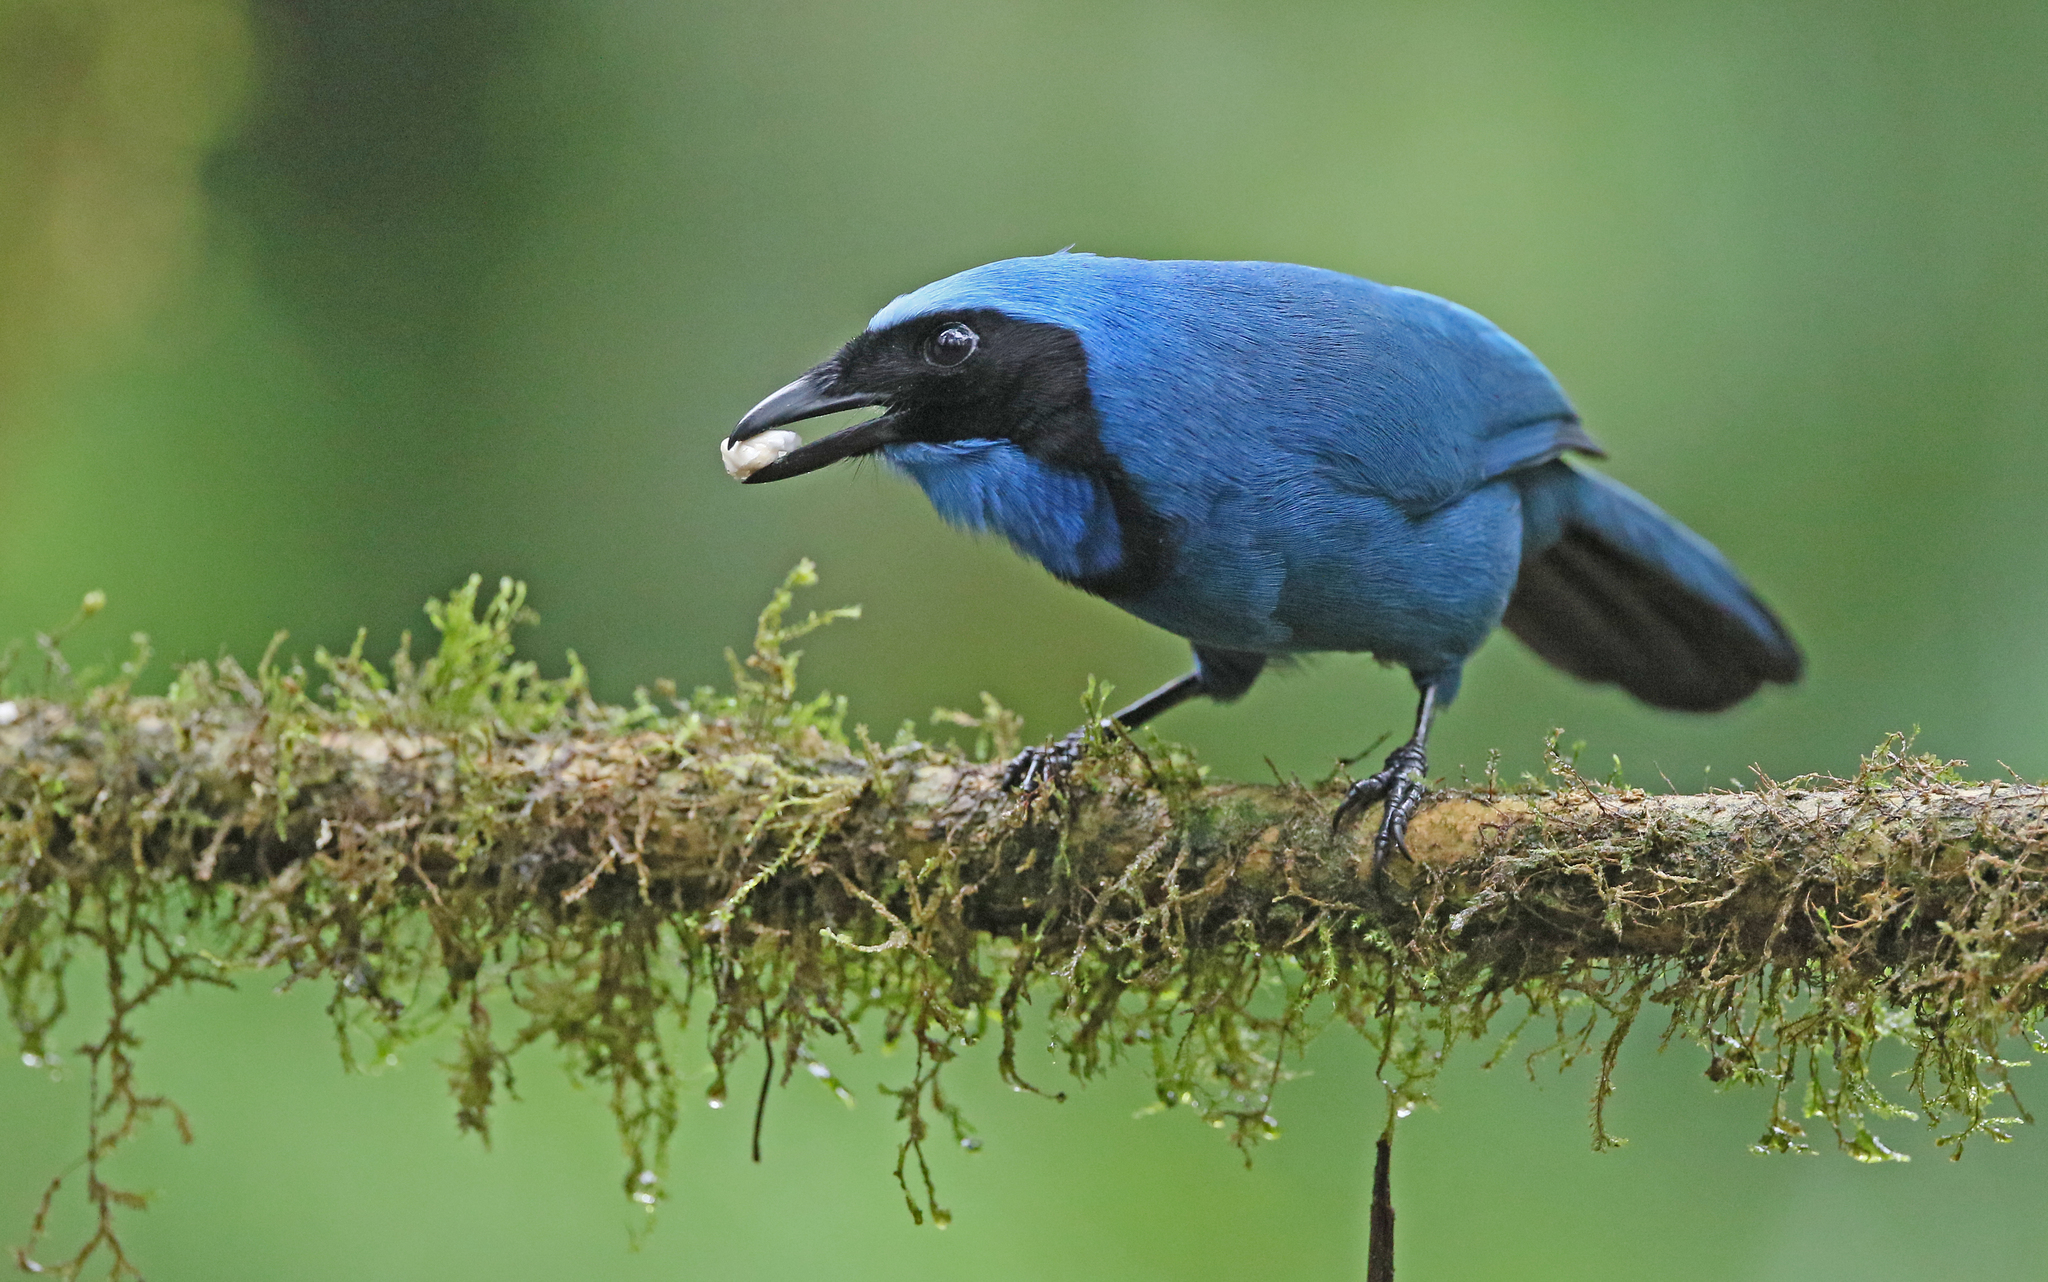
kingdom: Animalia
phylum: Chordata
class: Aves
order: Passeriformes
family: Corvidae
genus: Cyanolyca
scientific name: Cyanolyca turcosa
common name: Turquoise jay
